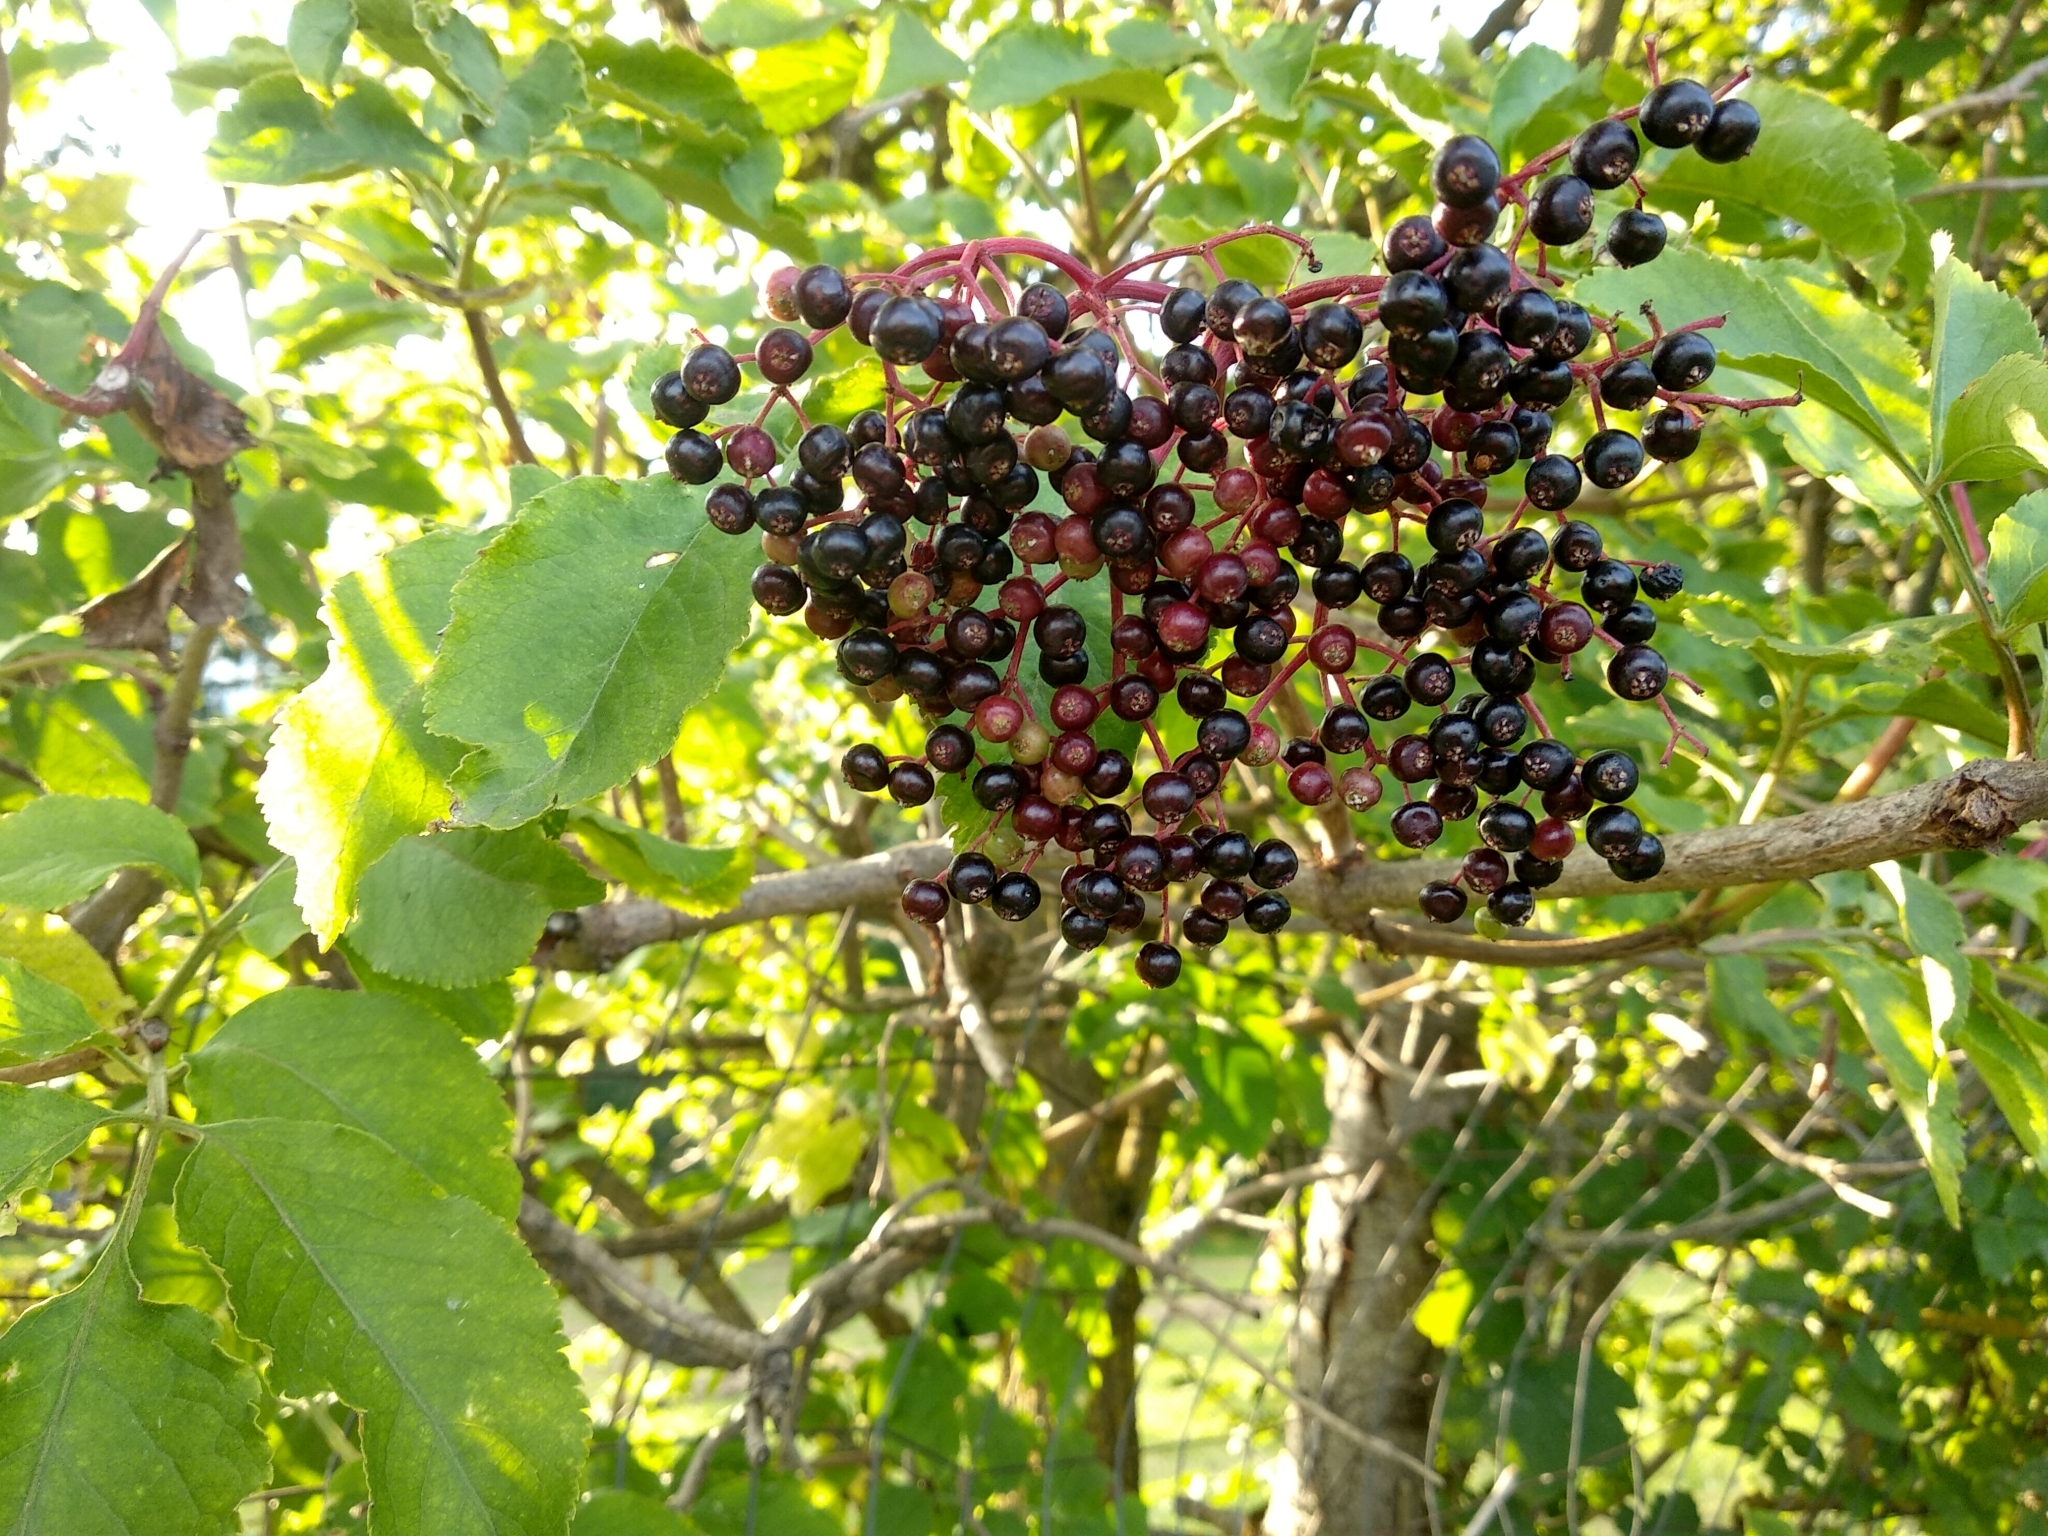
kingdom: Plantae
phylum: Tracheophyta
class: Magnoliopsida
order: Dipsacales
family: Viburnaceae
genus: Sambucus
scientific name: Sambucus nigra
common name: Elder
